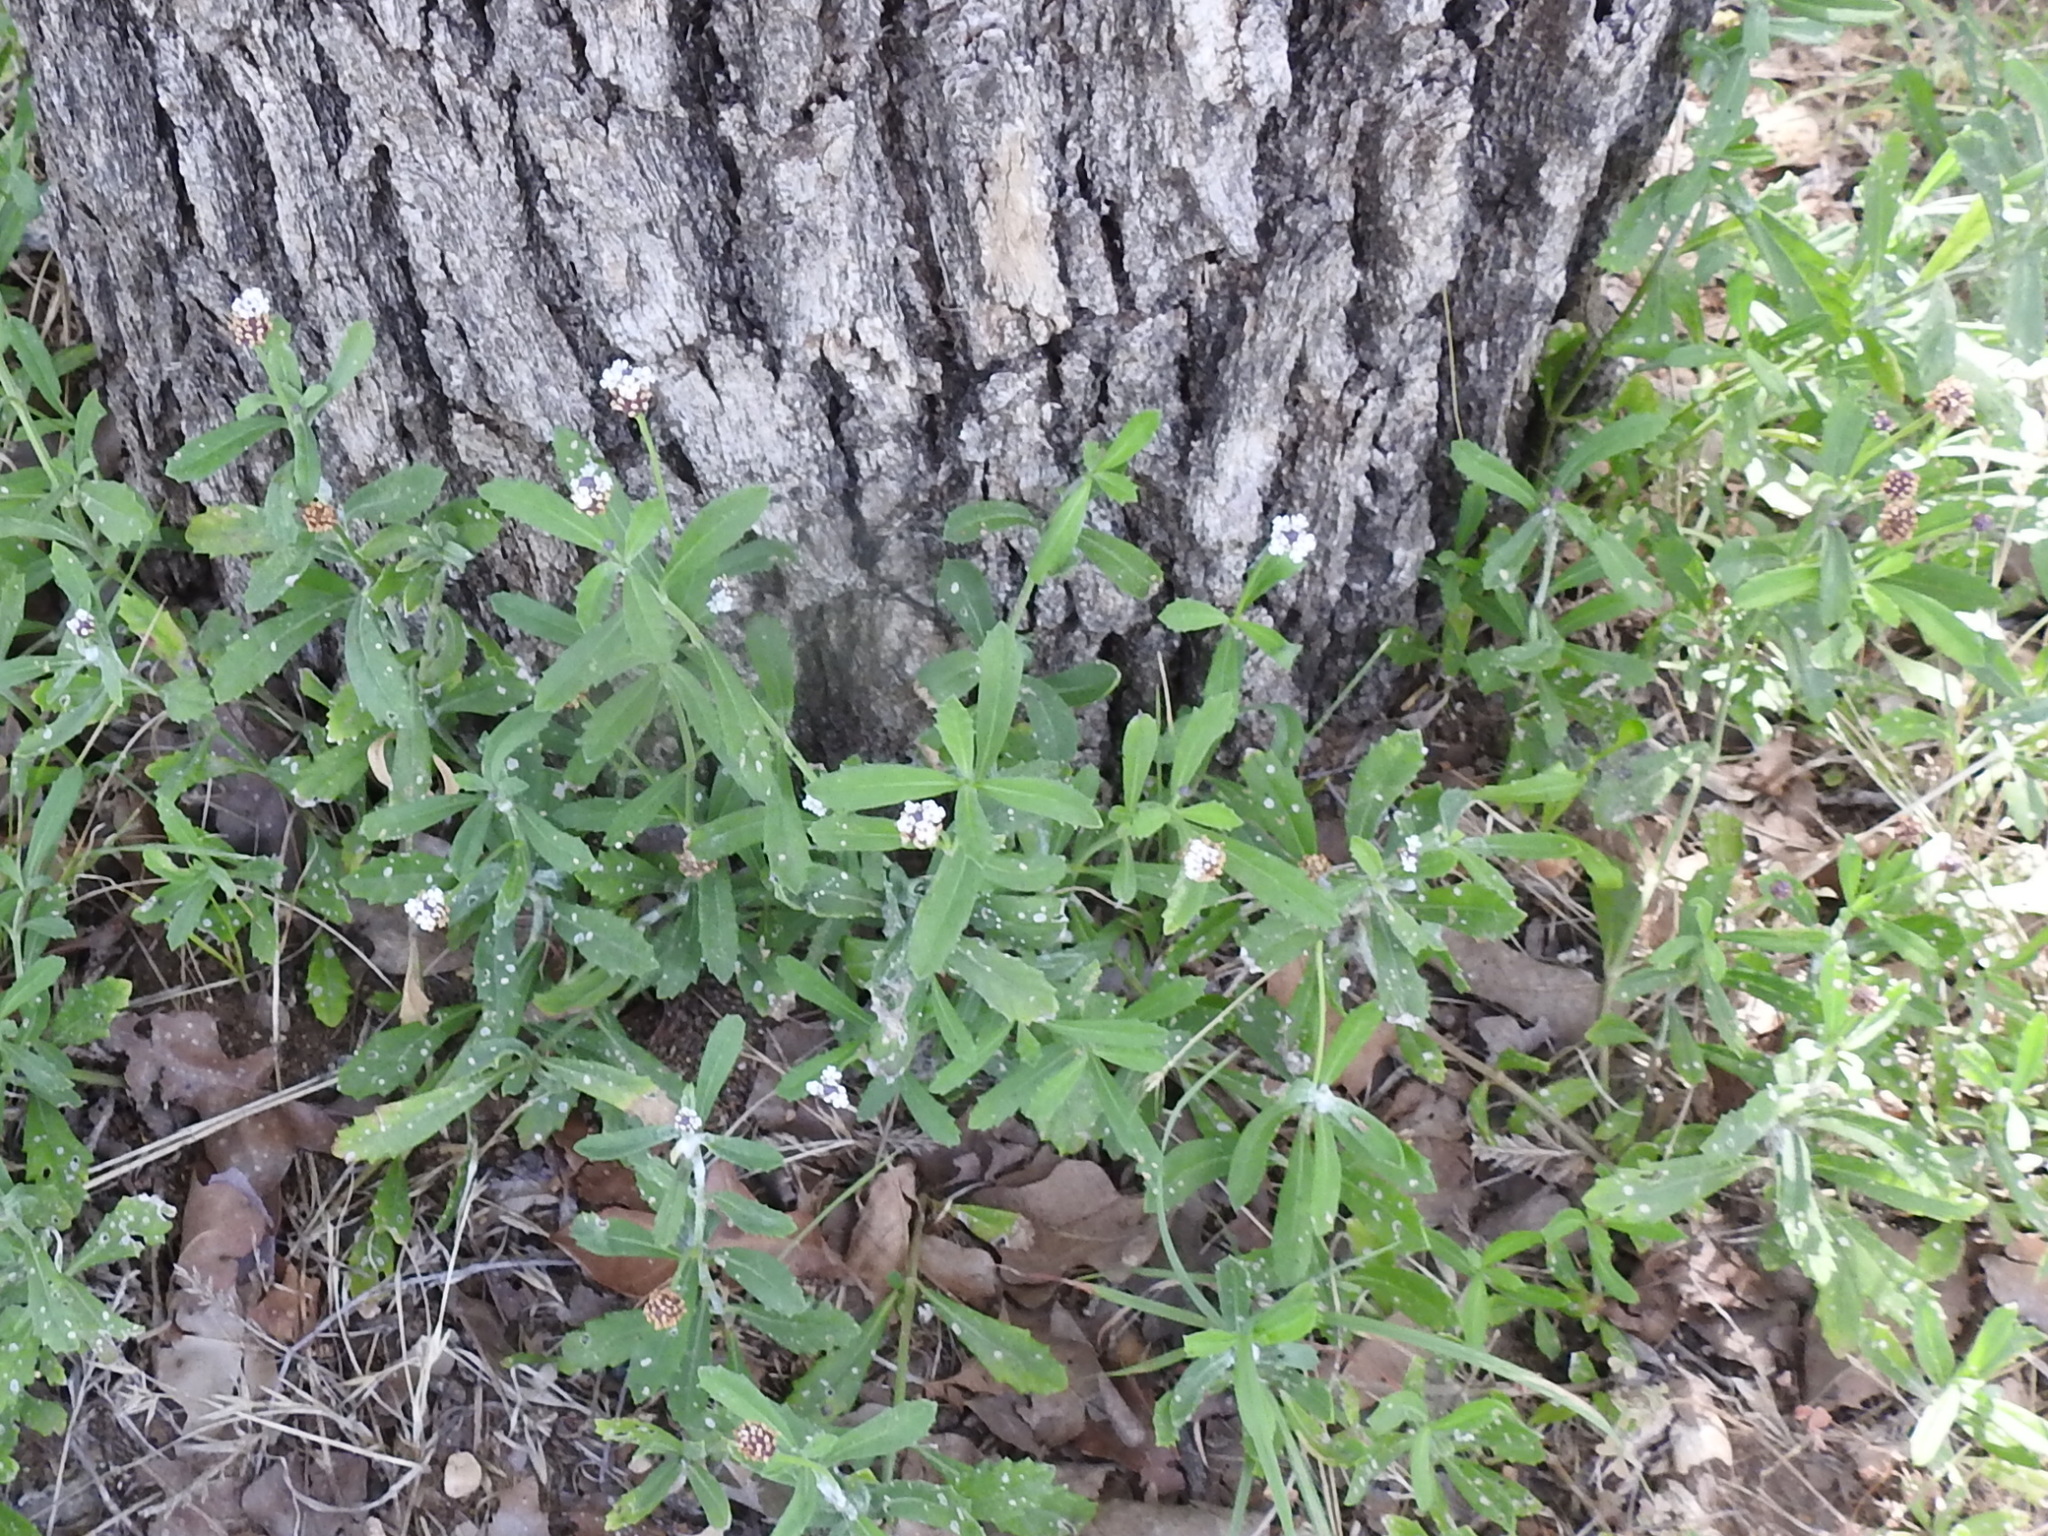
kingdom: Plantae
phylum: Tracheophyta
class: Magnoliopsida
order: Lamiales
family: Verbenaceae
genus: Phyla
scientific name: Phyla nodiflora
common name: Frogfruit
